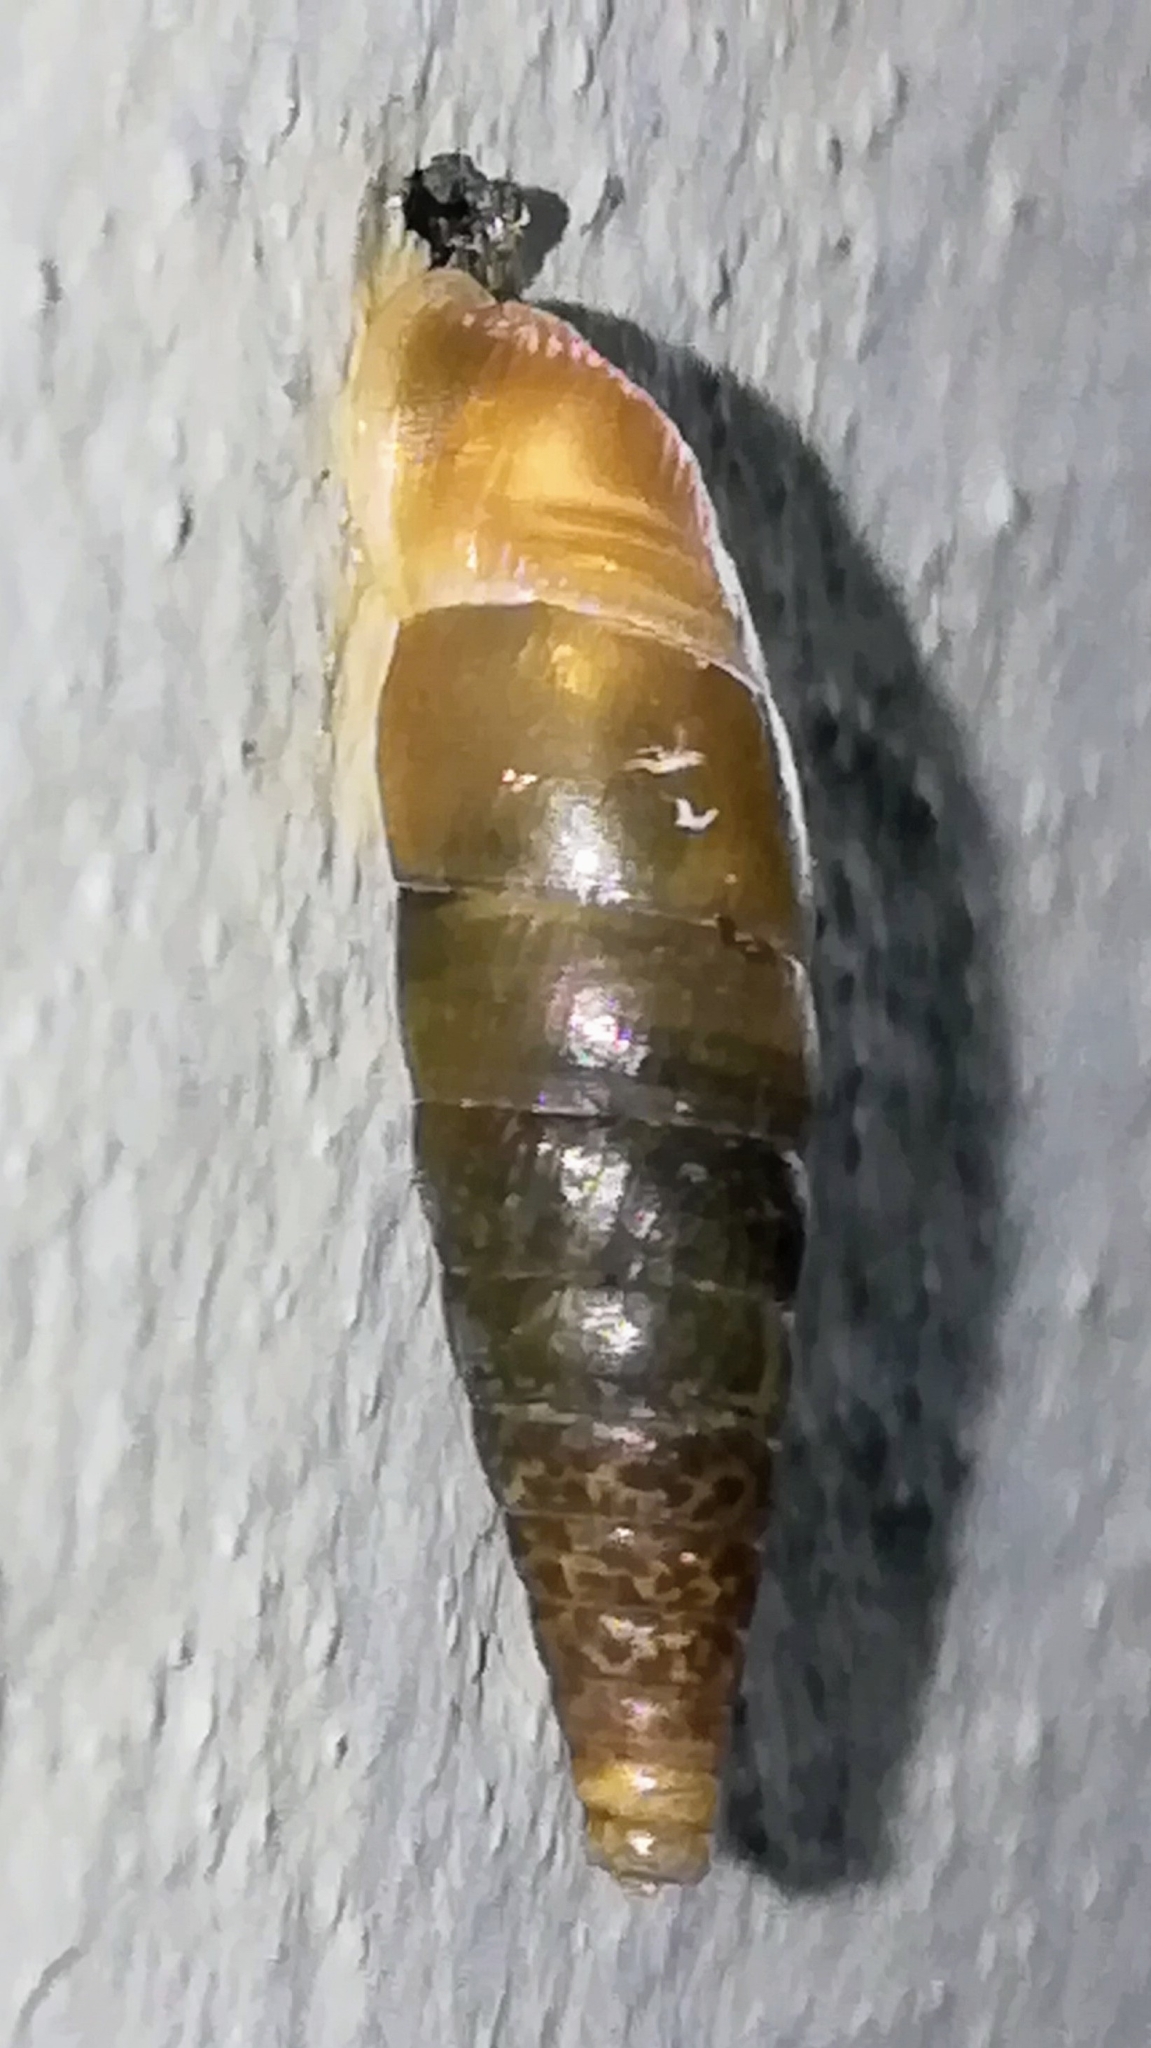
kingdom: Animalia
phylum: Mollusca
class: Gastropoda
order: Stylommatophora
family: Clausiliidae
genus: Cochlodina
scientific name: Cochlodina laminata
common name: Plaited door snail
